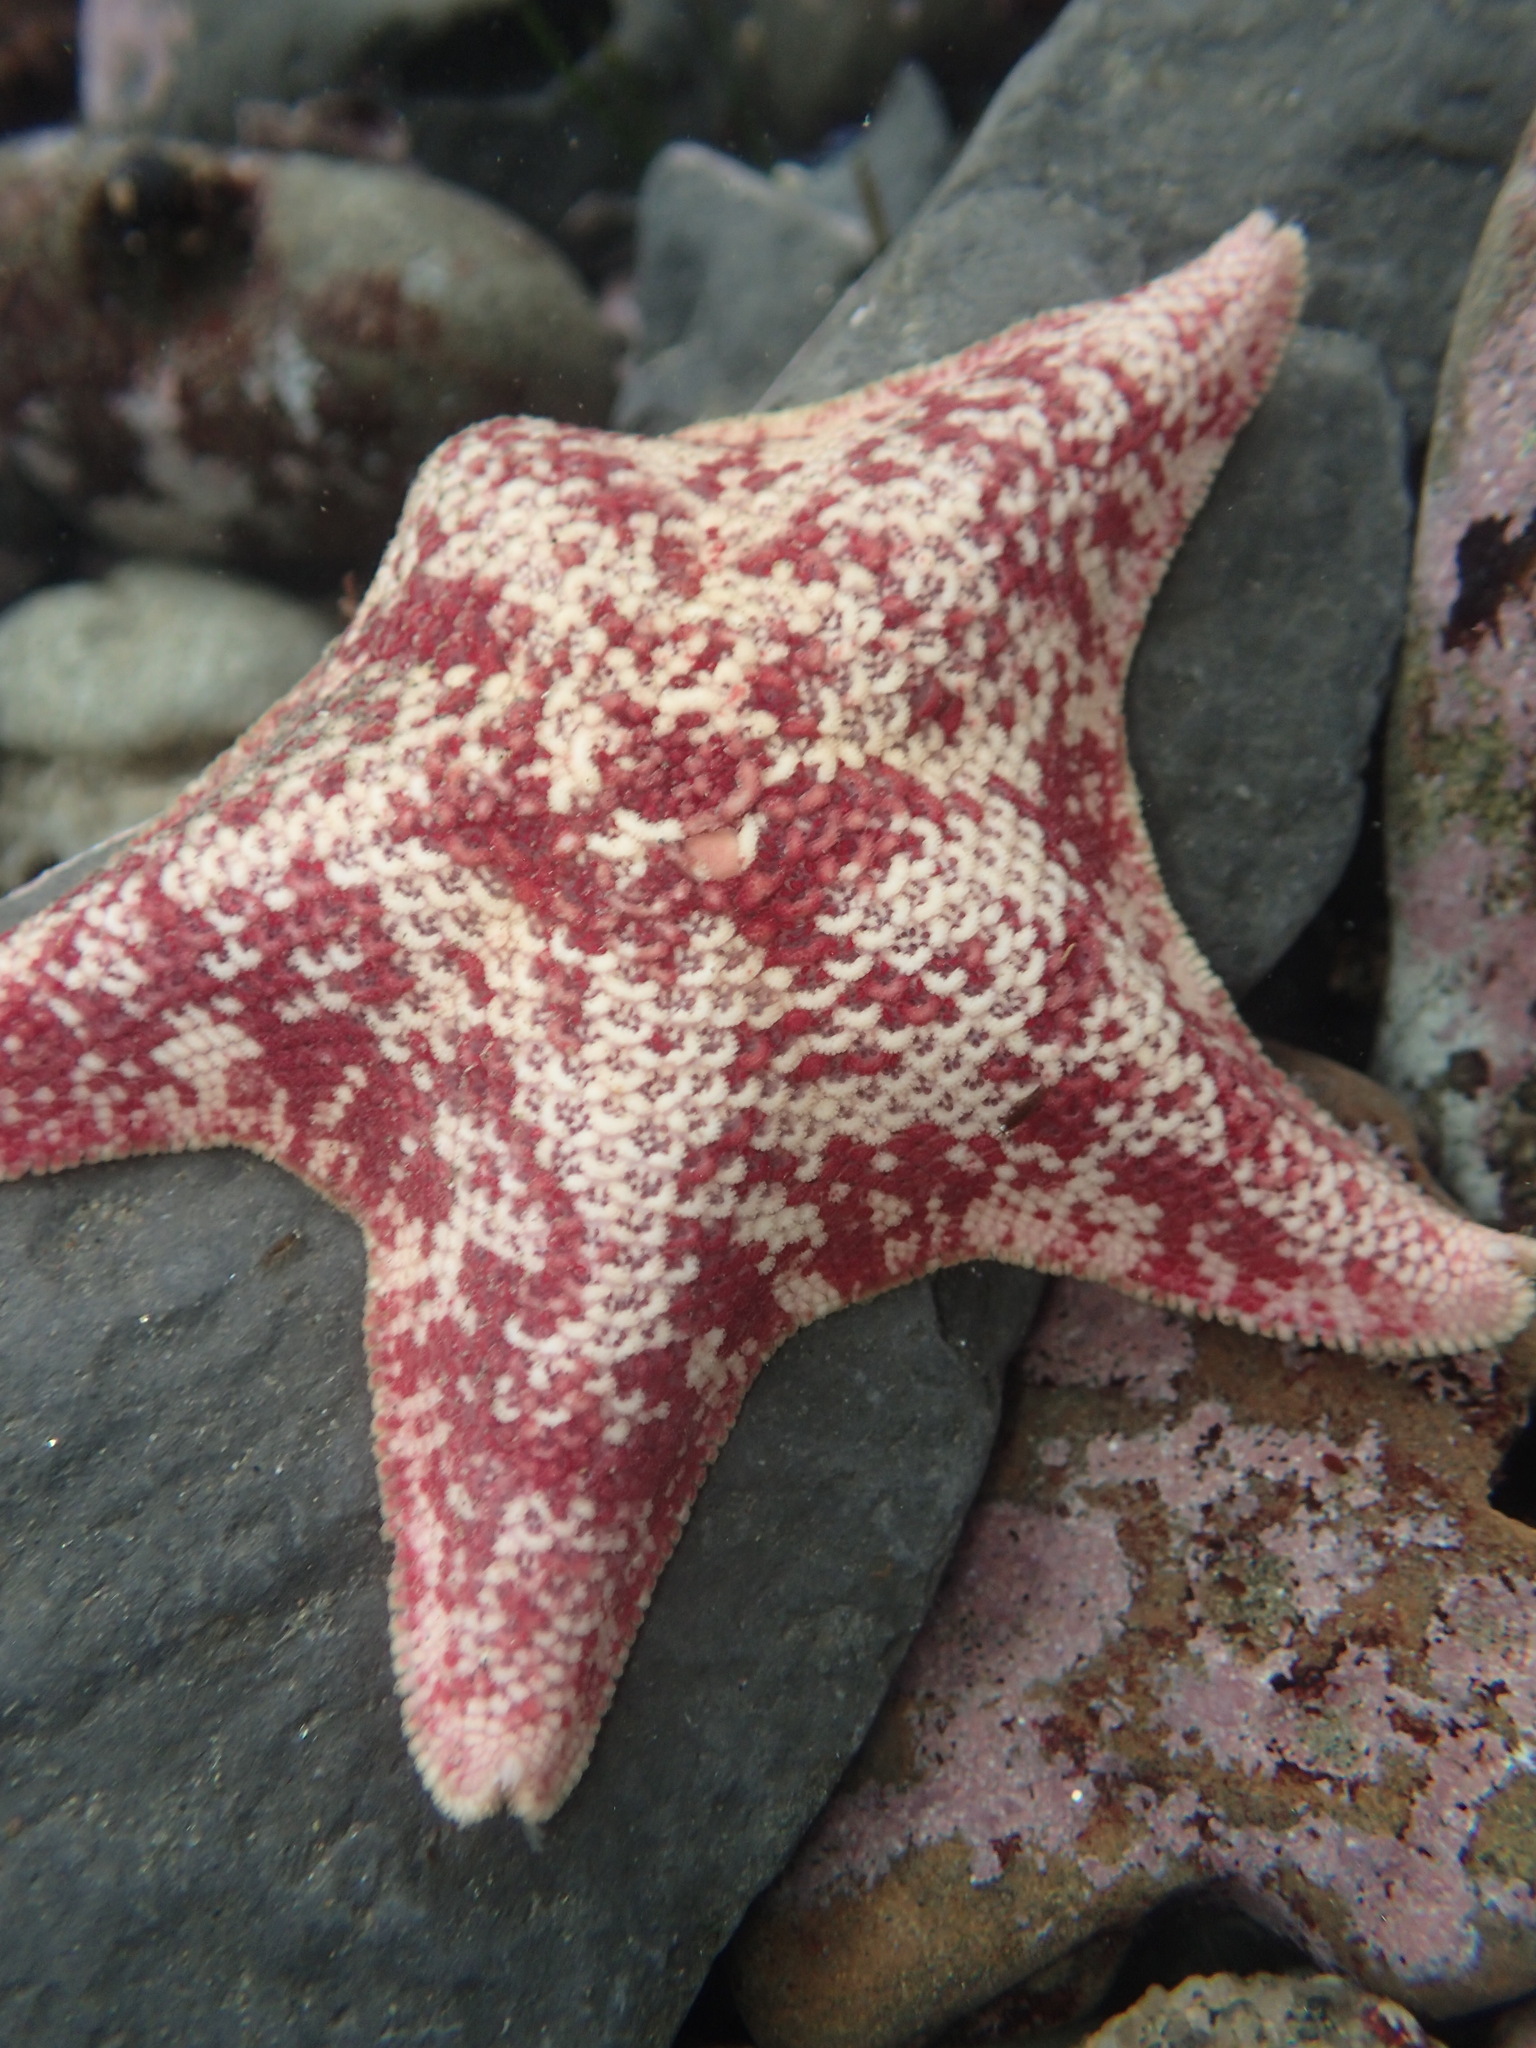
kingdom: Animalia
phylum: Echinodermata
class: Asteroidea
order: Valvatida
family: Asterinidae
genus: Patiria
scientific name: Patiria miniata
